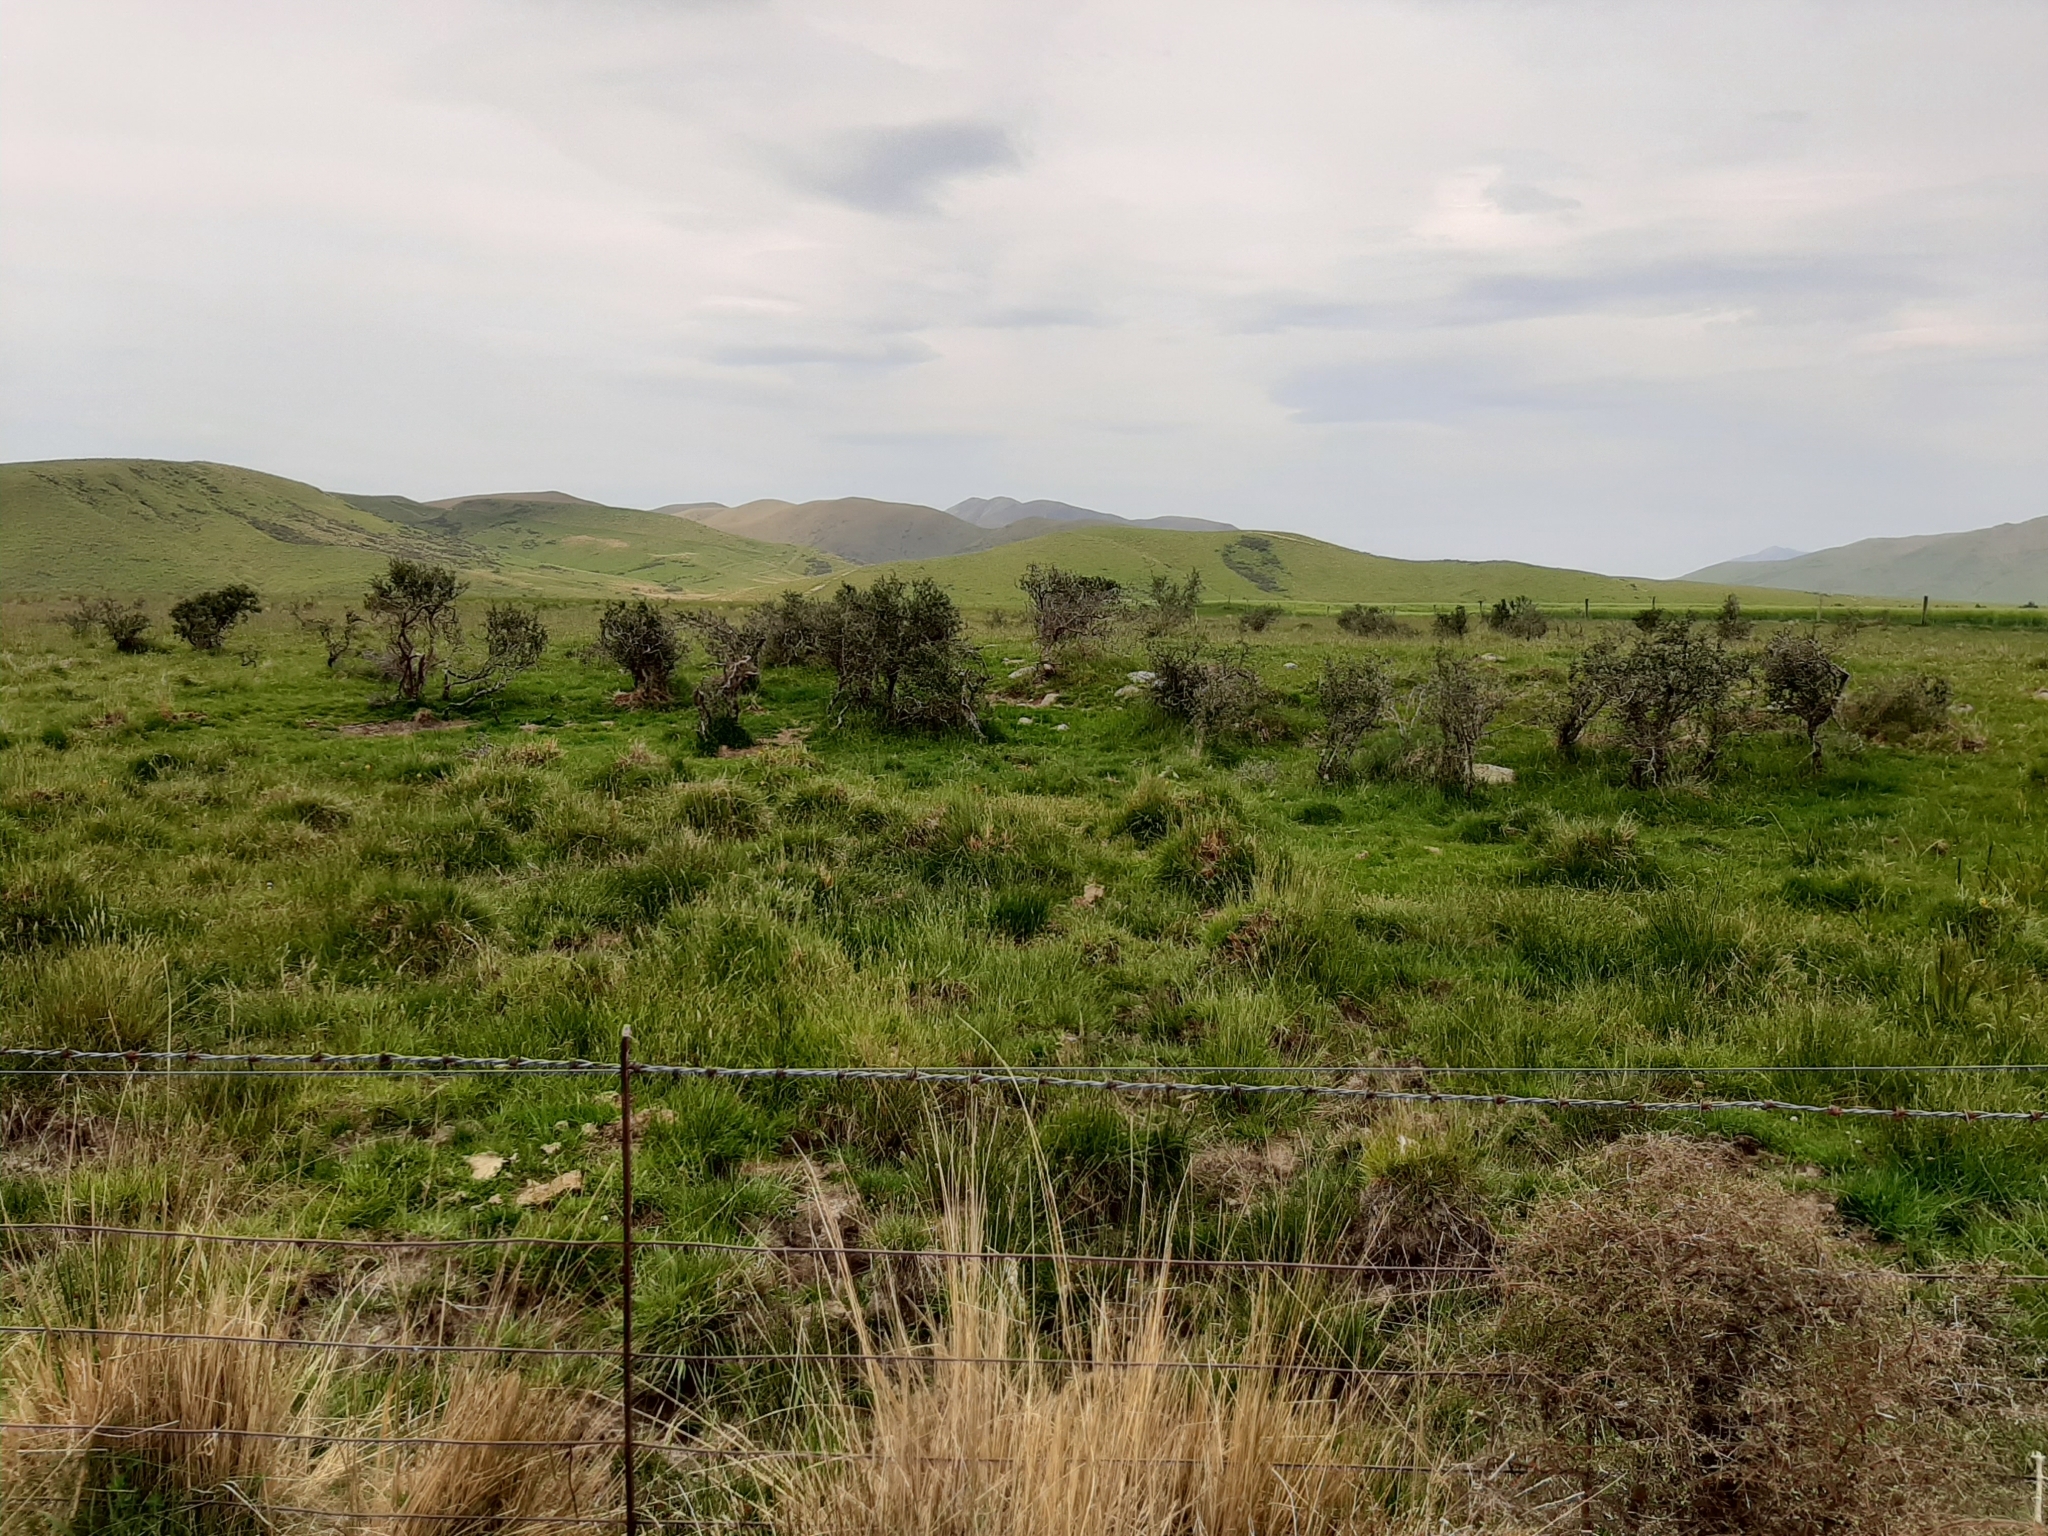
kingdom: Plantae
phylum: Tracheophyta
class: Magnoliopsida
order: Rosales
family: Rhamnaceae
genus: Discaria
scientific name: Discaria toumatou
